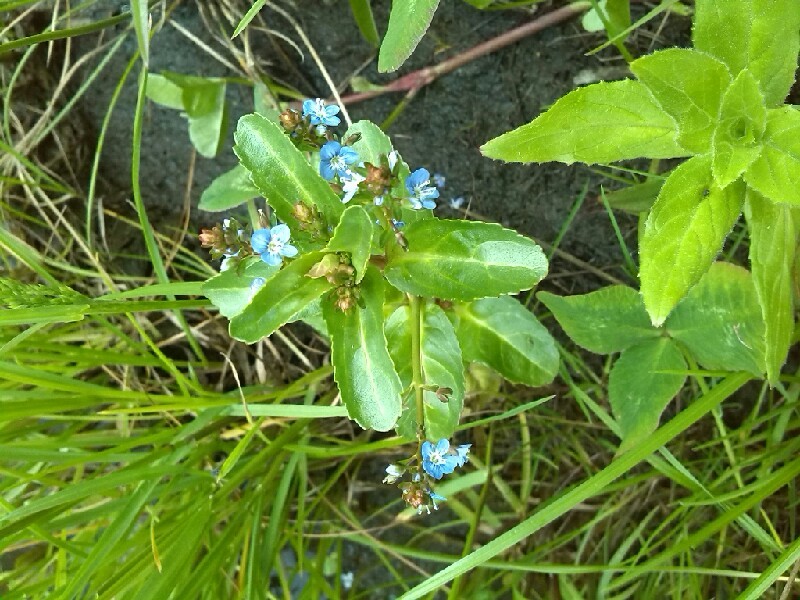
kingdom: Plantae
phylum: Tracheophyta
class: Magnoliopsida
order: Lamiales
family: Plantaginaceae
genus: Veronica
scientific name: Veronica beccabunga
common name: Brooklime
